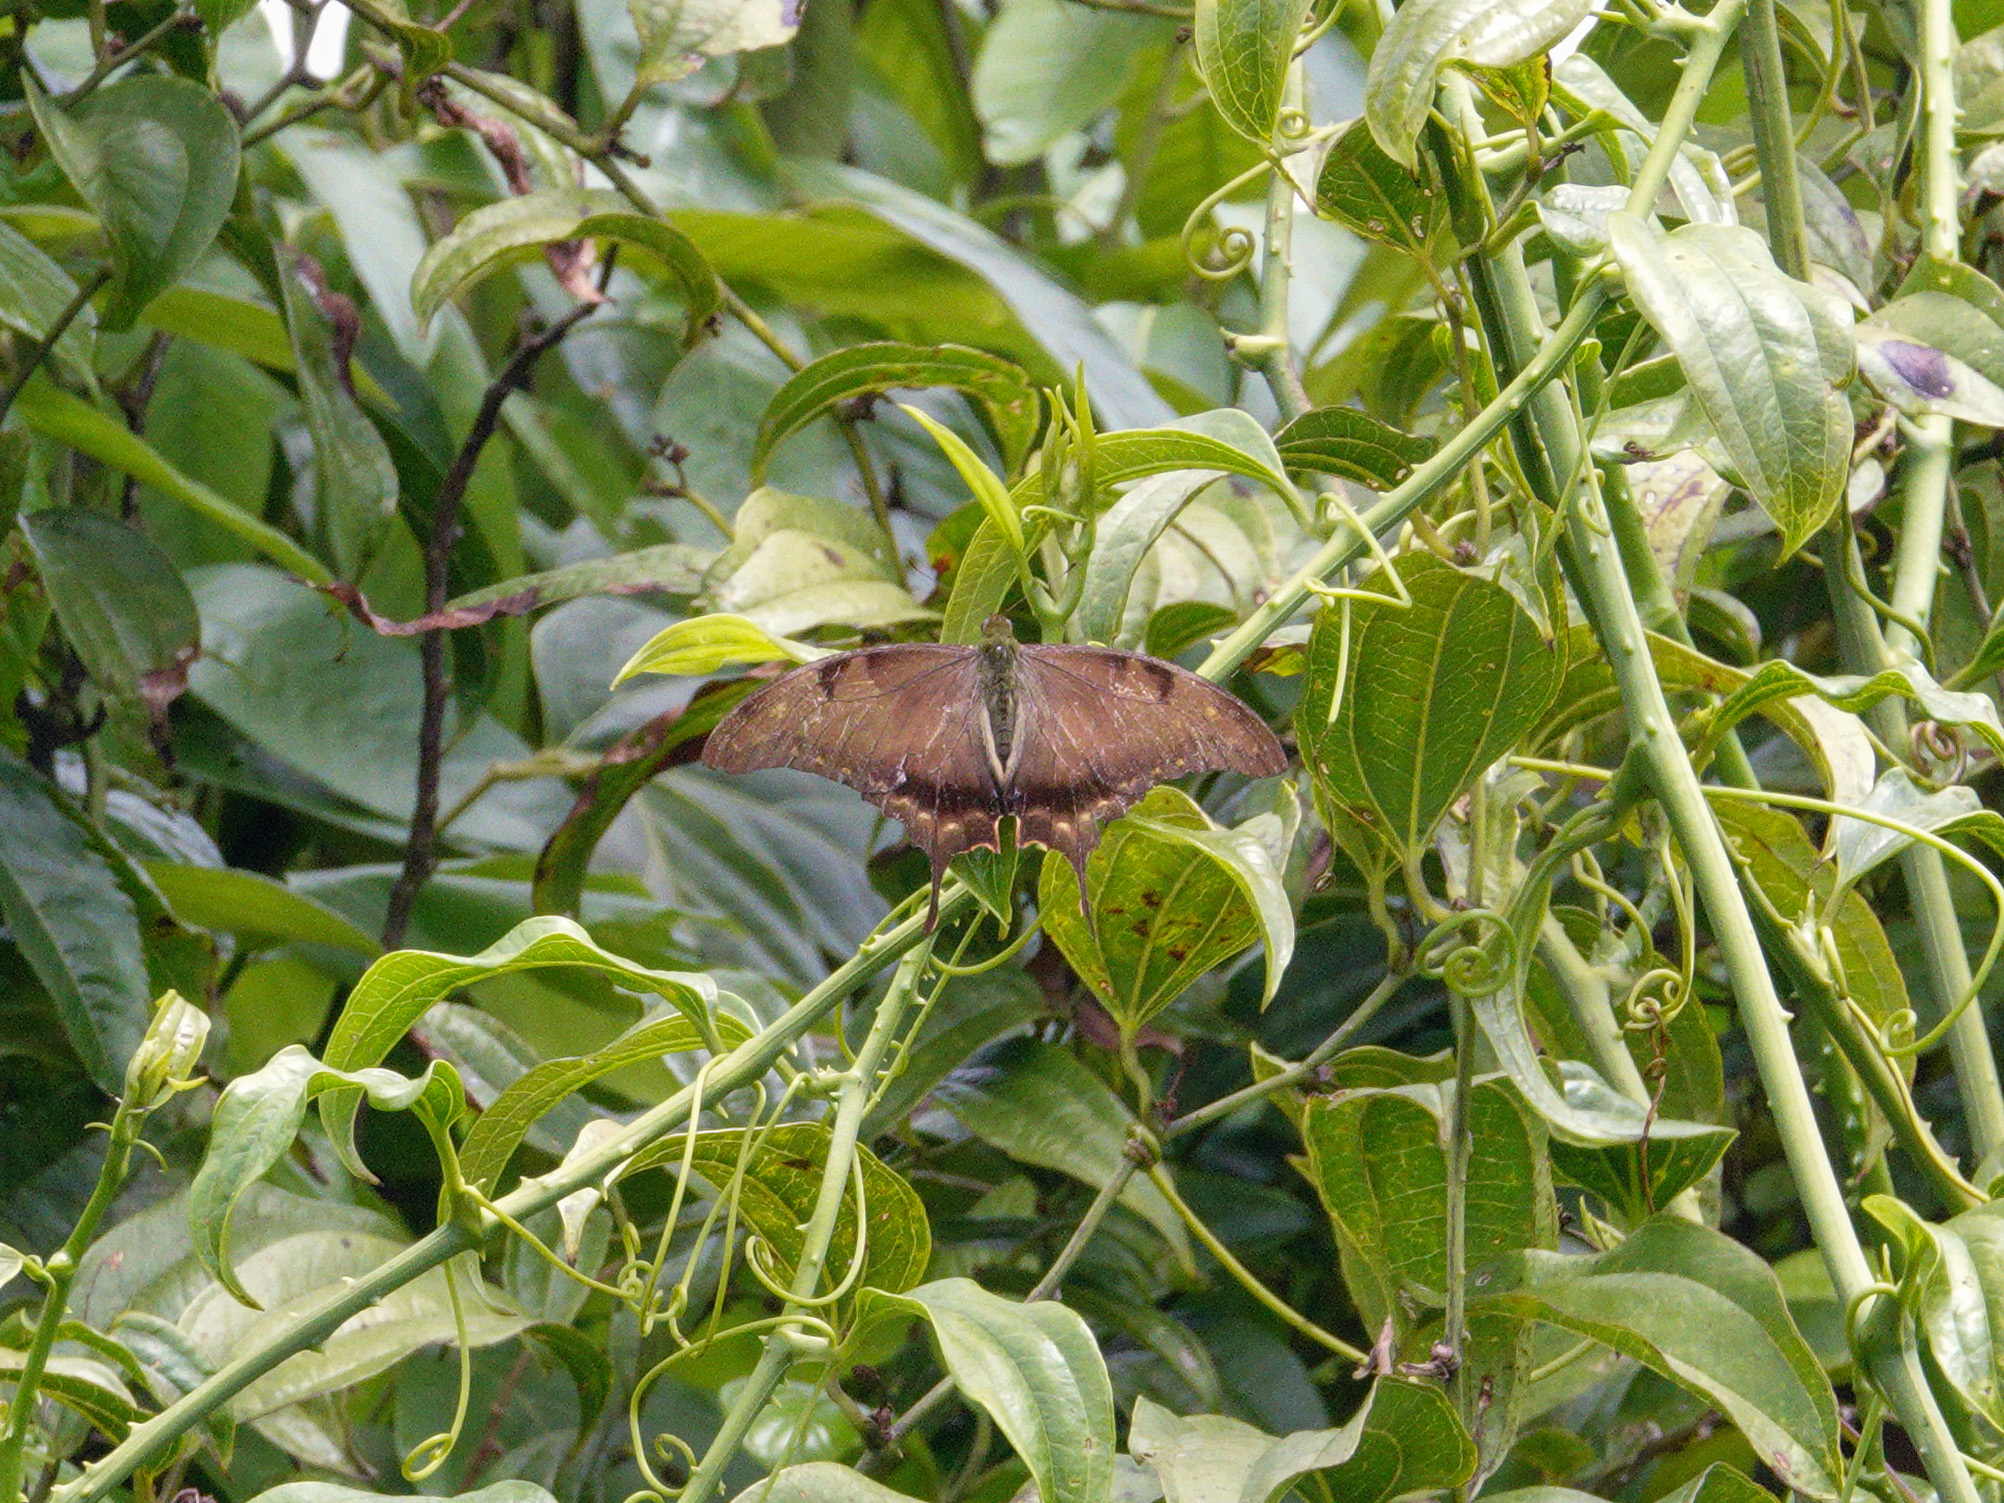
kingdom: Animalia
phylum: Arthropoda
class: Insecta
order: Lepidoptera
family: Papilionidae
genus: Meandrusa
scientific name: Meandrusa lachinus
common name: Brown gorgon
